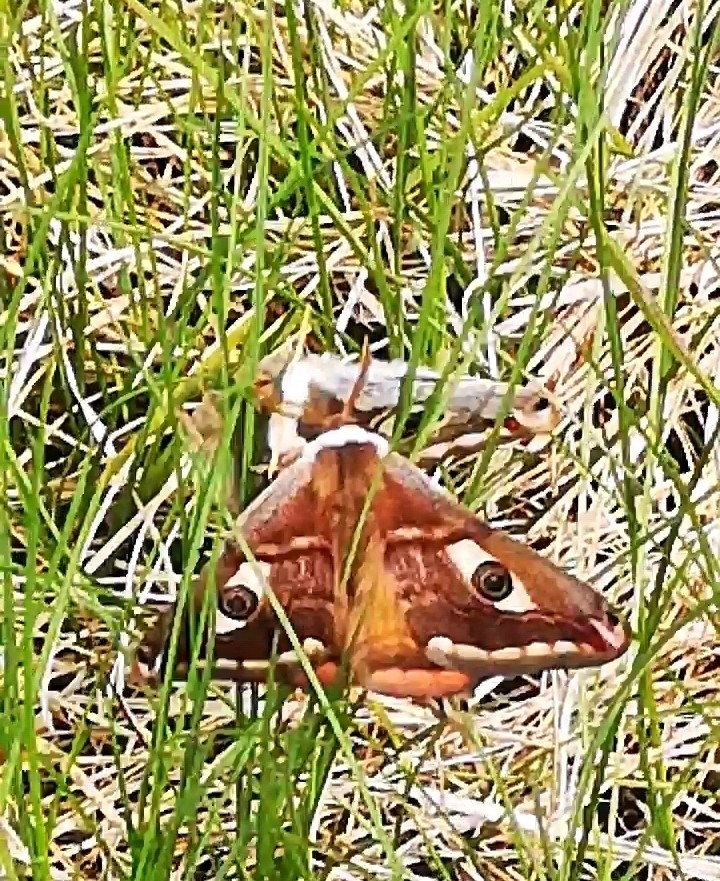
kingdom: Animalia
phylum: Arthropoda
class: Insecta
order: Lepidoptera
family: Saturniidae
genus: Saturnia
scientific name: Saturnia pavoniella
